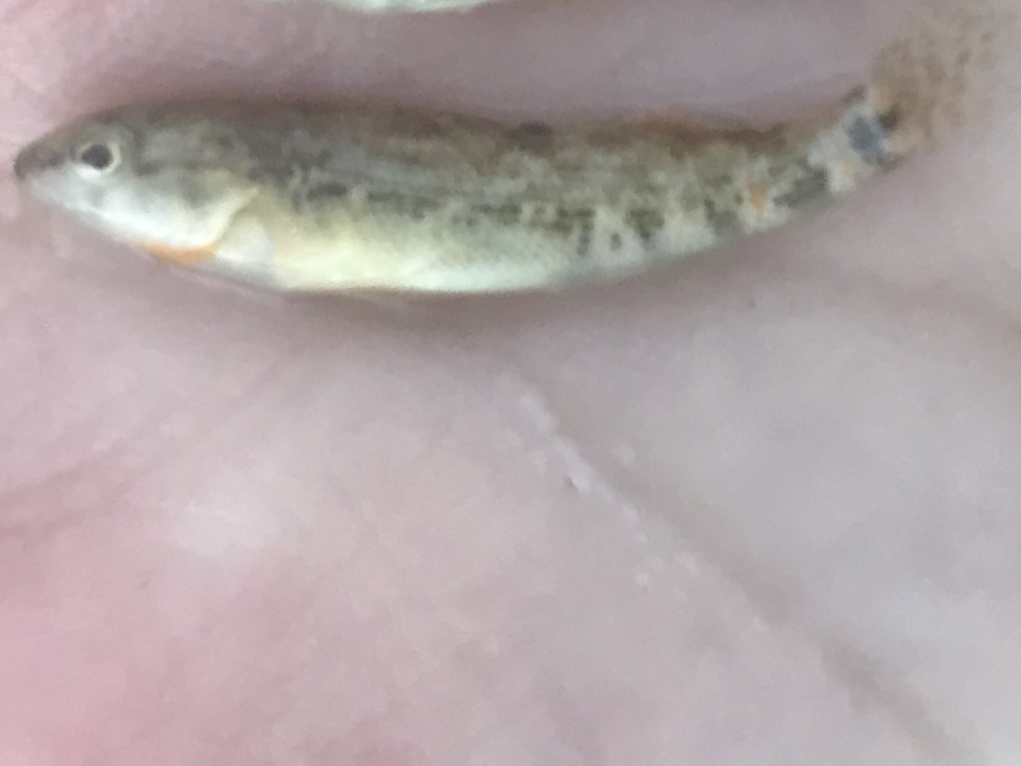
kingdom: Animalia
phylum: Chordata
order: Perciformes
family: Percidae
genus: Etheostoma
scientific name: Etheostoma spectabile
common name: Orangethroat darter
